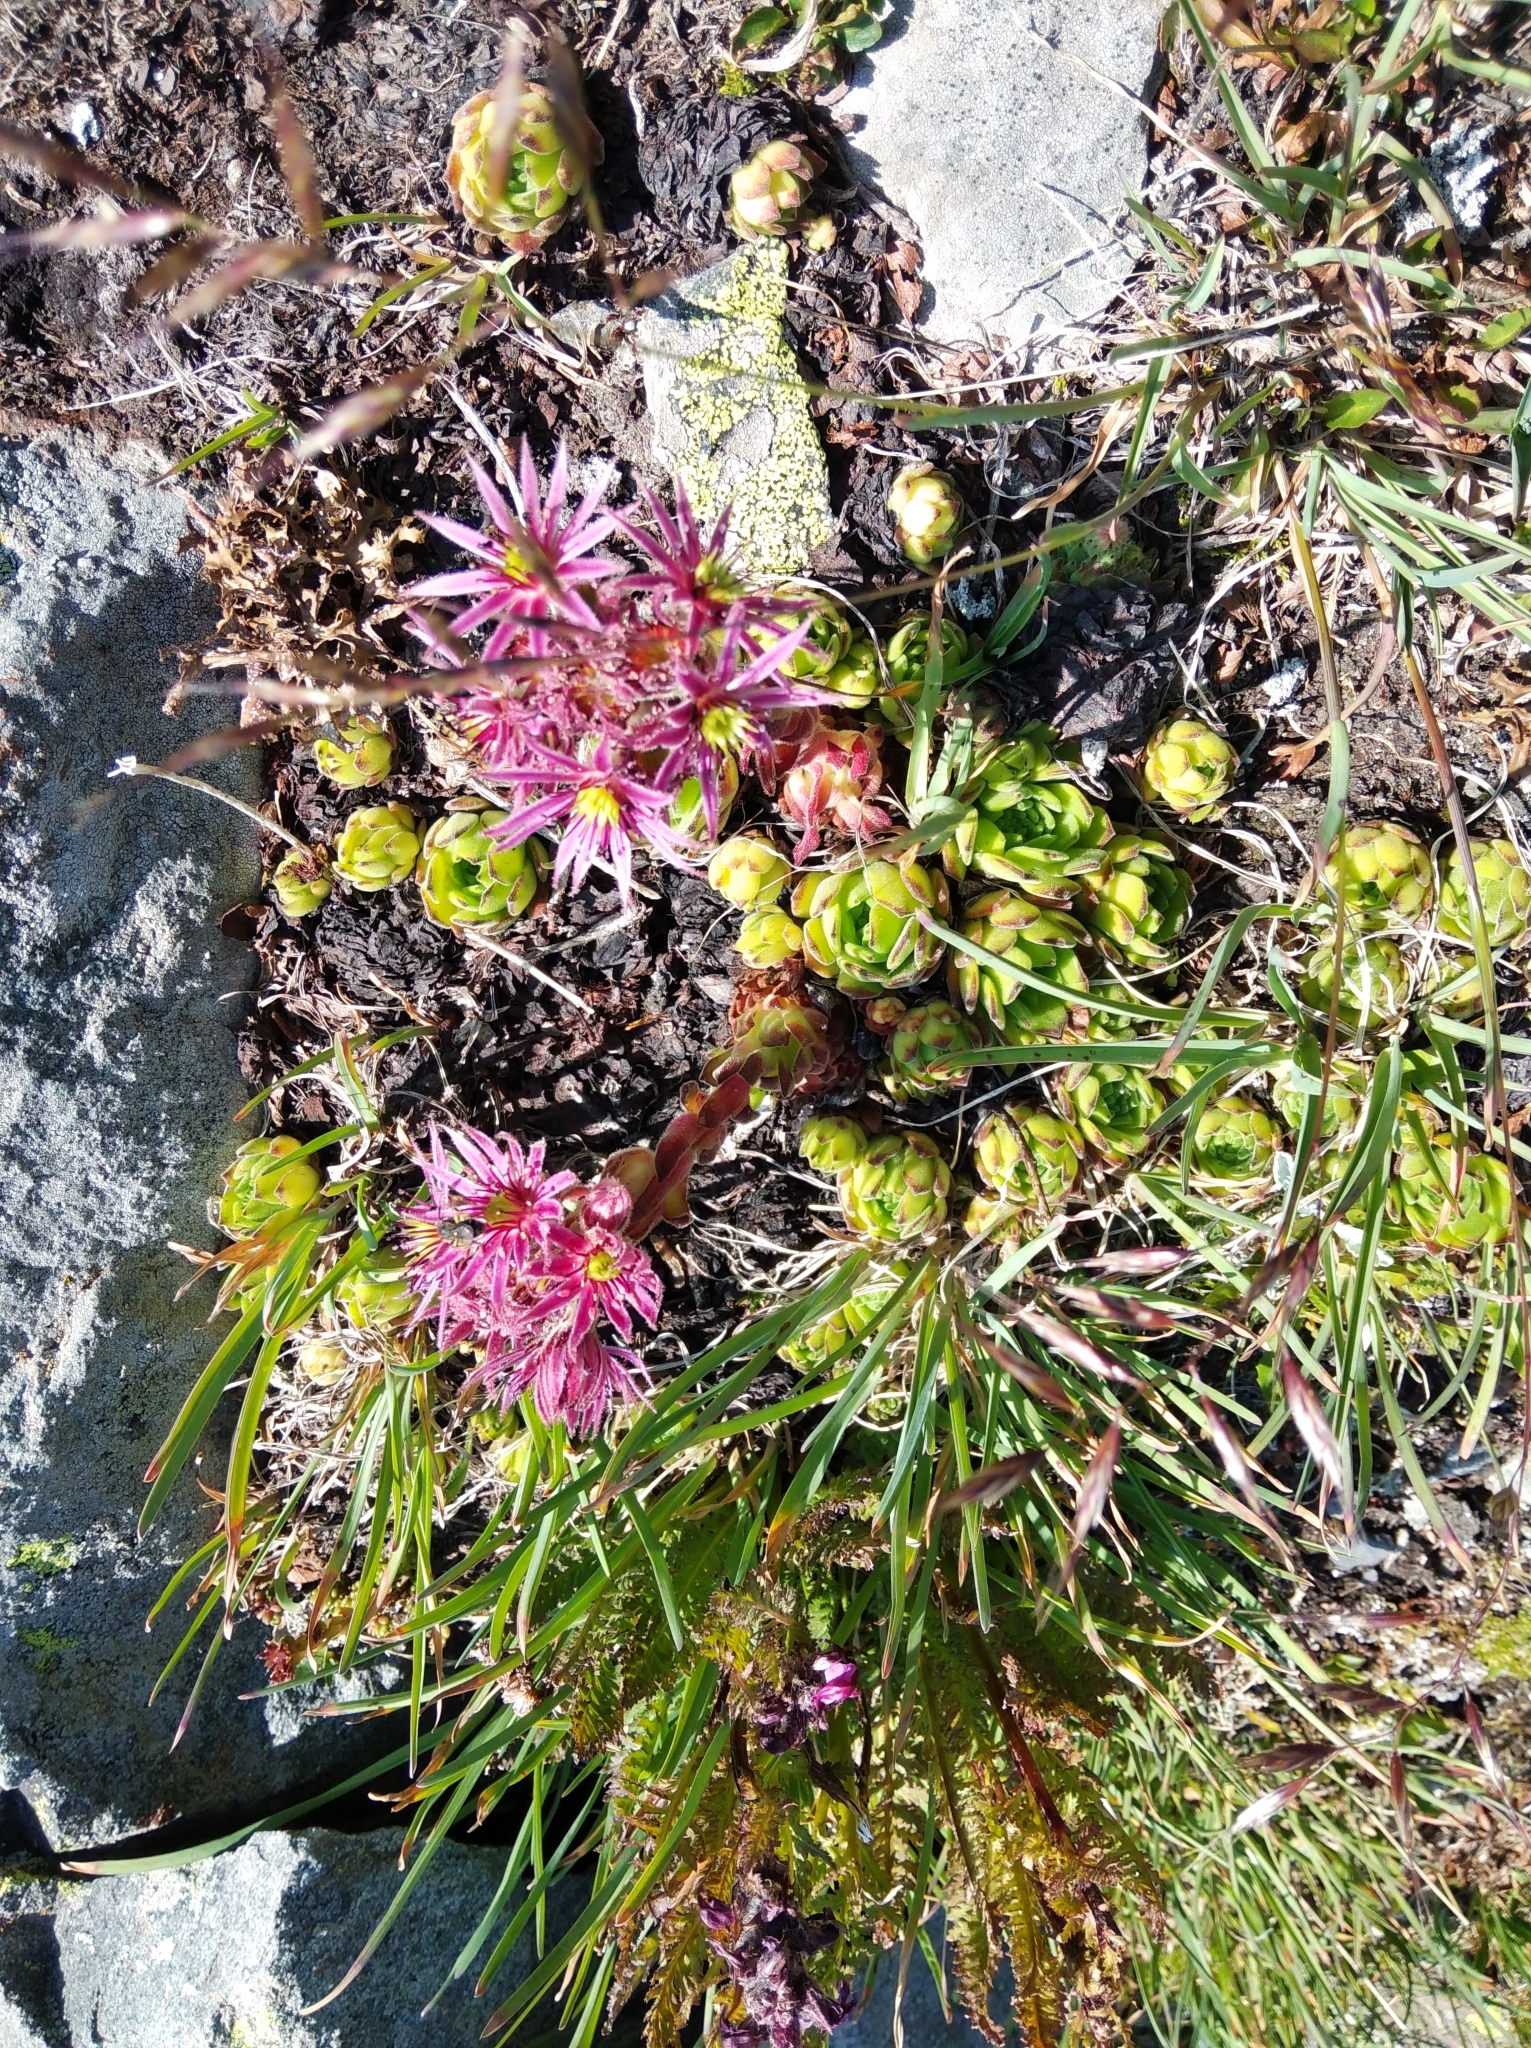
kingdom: Plantae
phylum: Tracheophyta
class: Magnoliopsida
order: Saxifragales
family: Crassulaceae
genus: Sempervivum
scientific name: Sempervivum montanum
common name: Mountain house-leek
